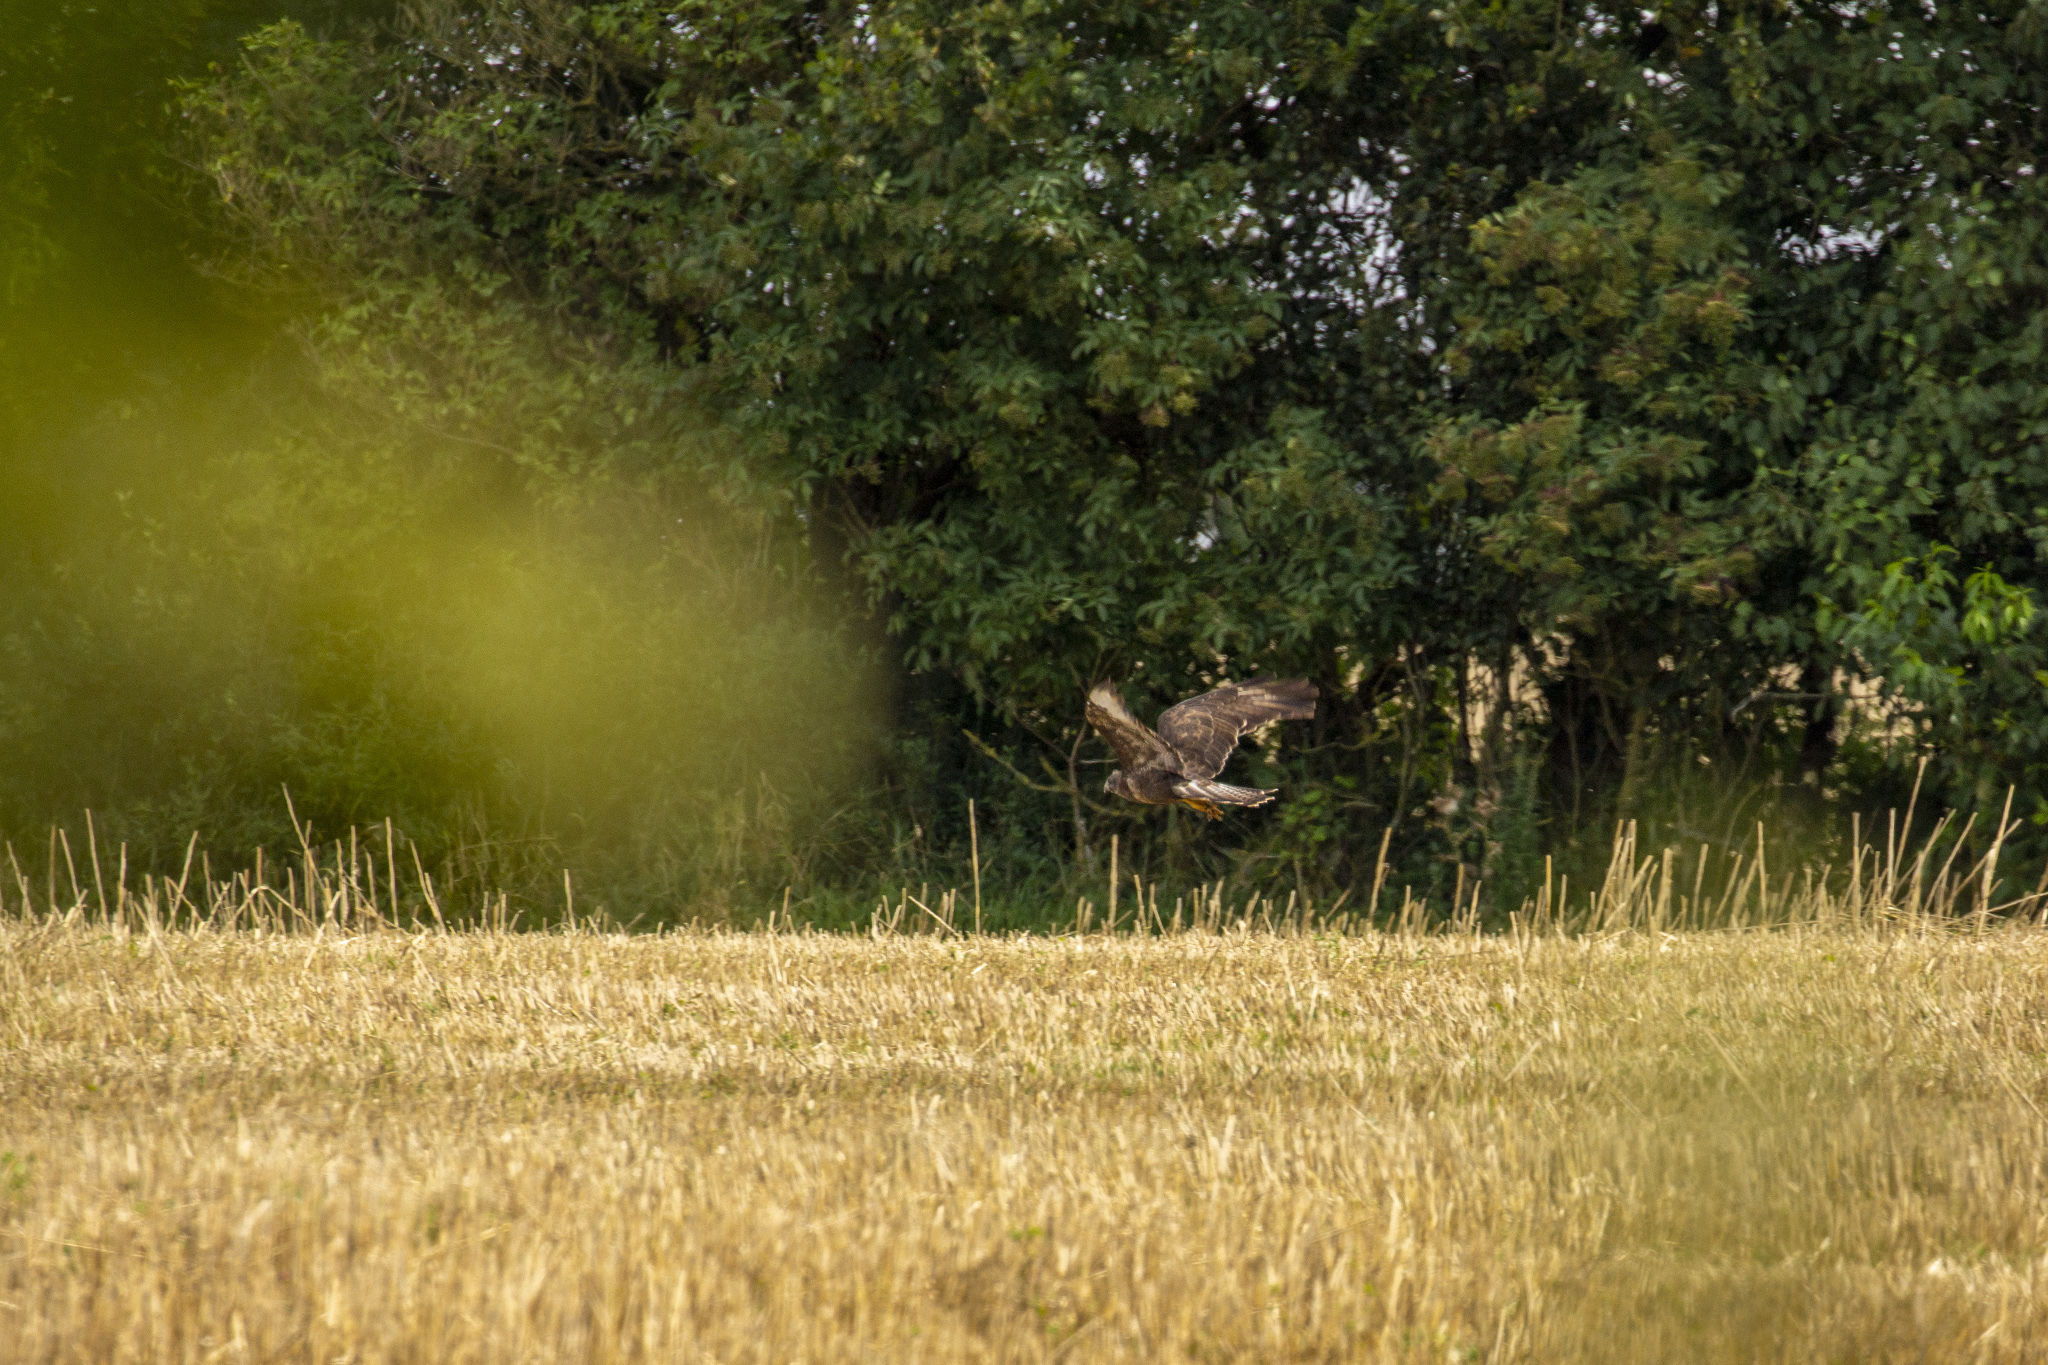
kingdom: Animalia
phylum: Chordata
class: Aves
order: Accipitriformes
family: Accipitridae
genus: Buteo
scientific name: Buteo buteo
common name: Common buzzard
